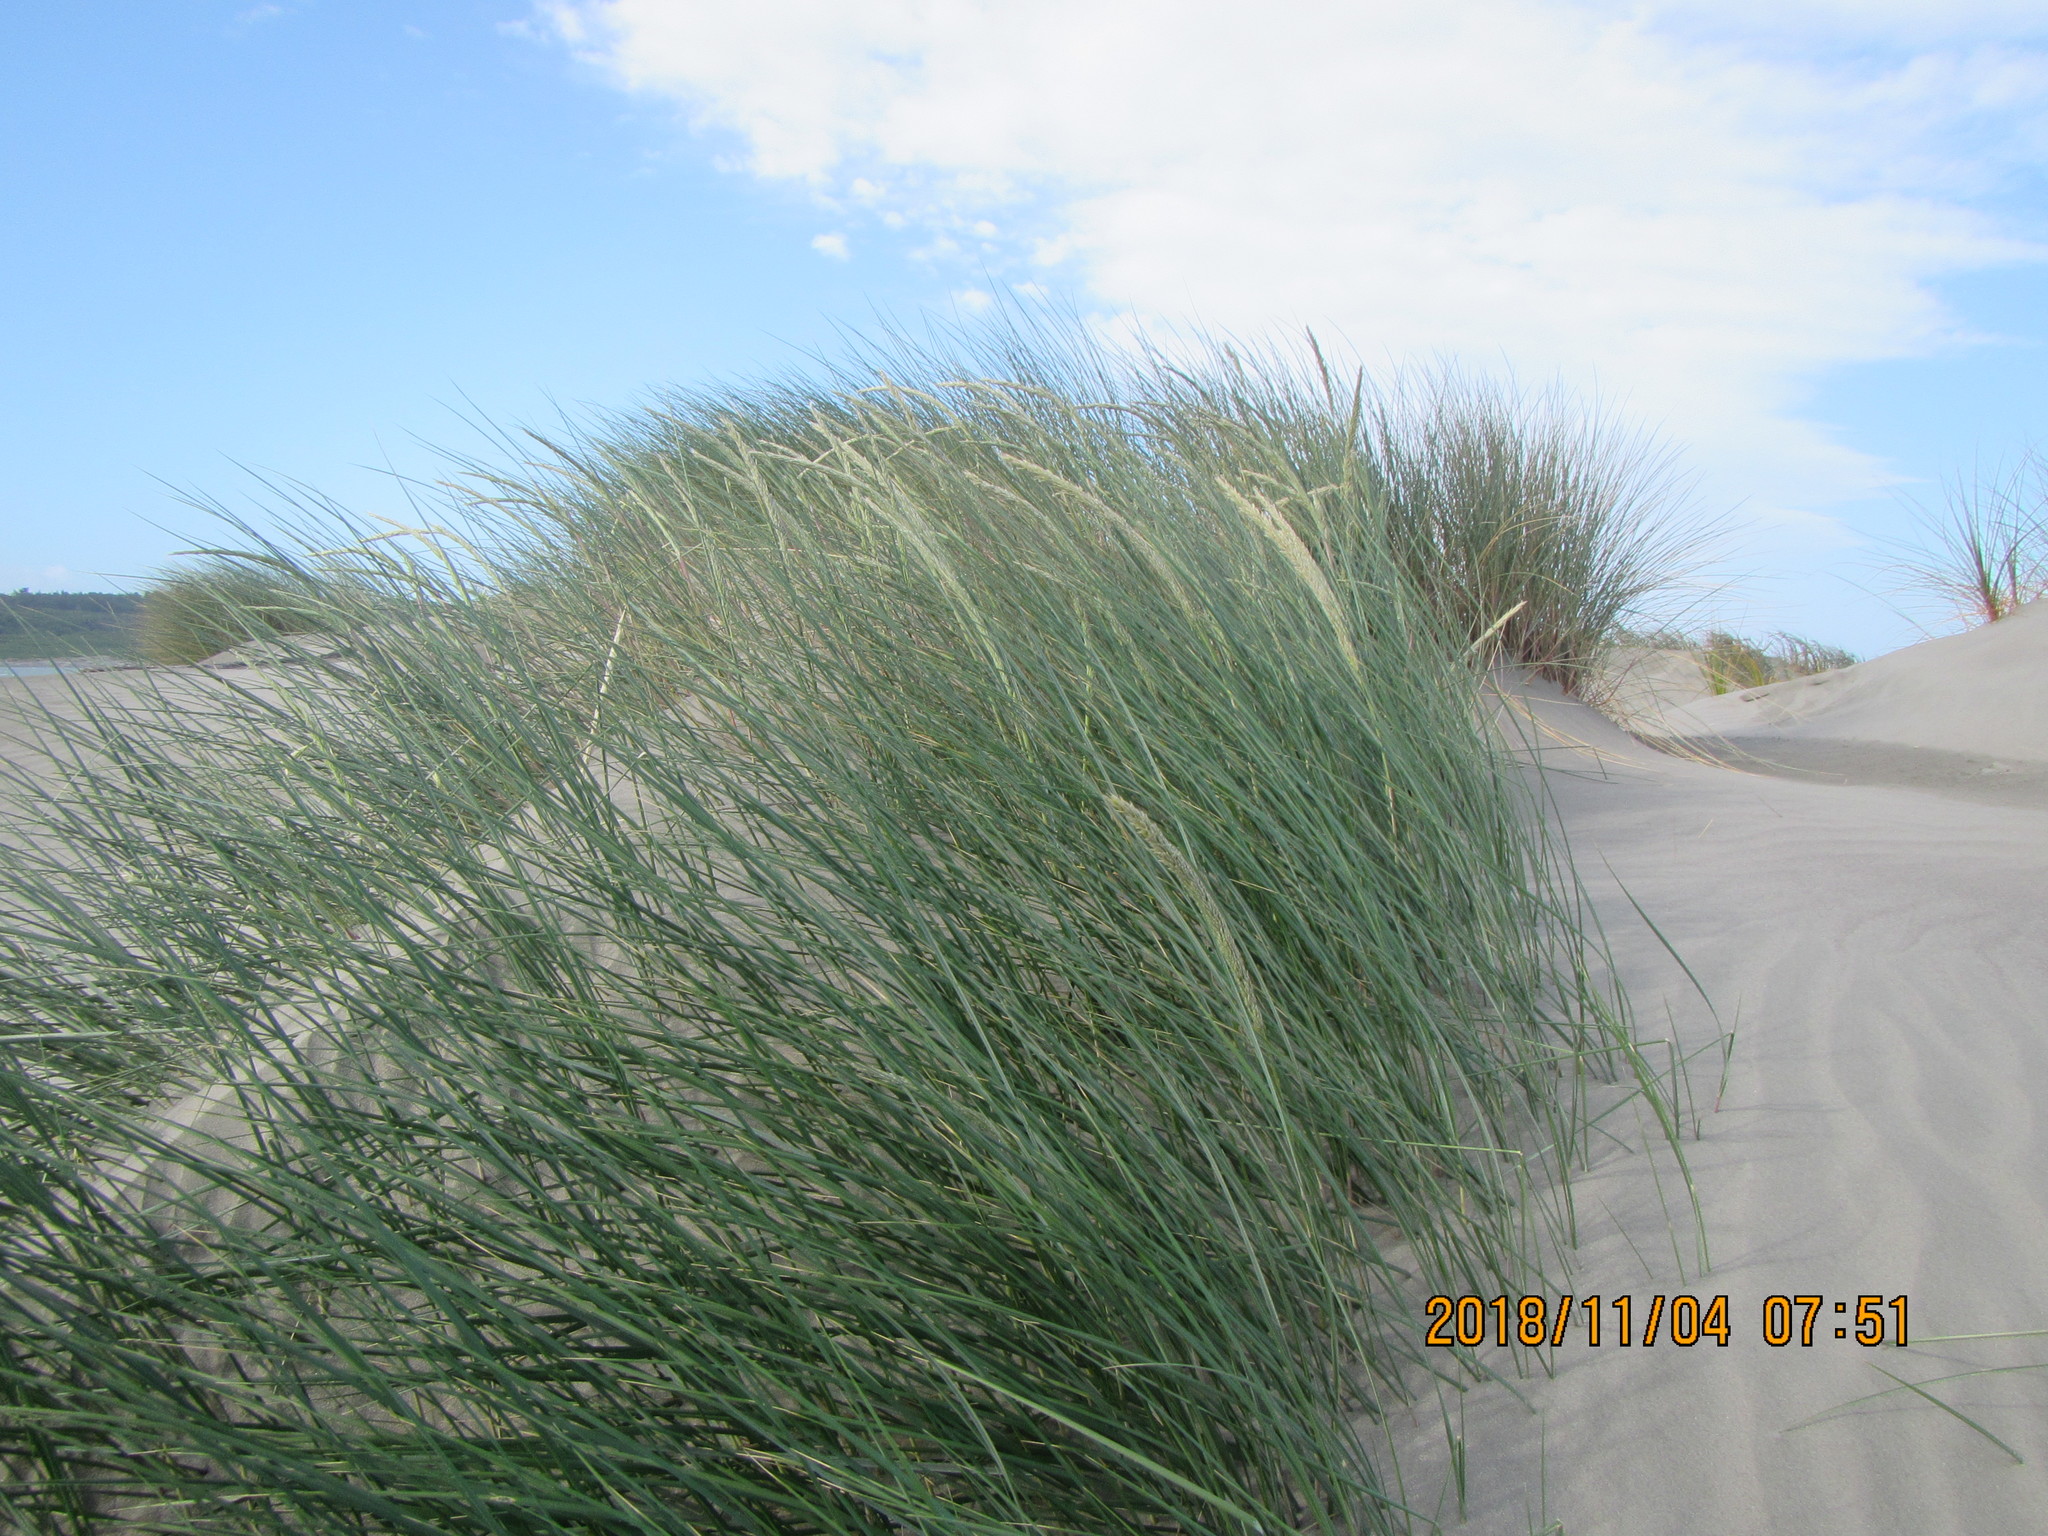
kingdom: Plantae
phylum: Tracheophyta
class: Liliopsida
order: Poales
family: Poaceae
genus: Calamagrostis
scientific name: Calamagrostis arenaria
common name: European beachgrass
